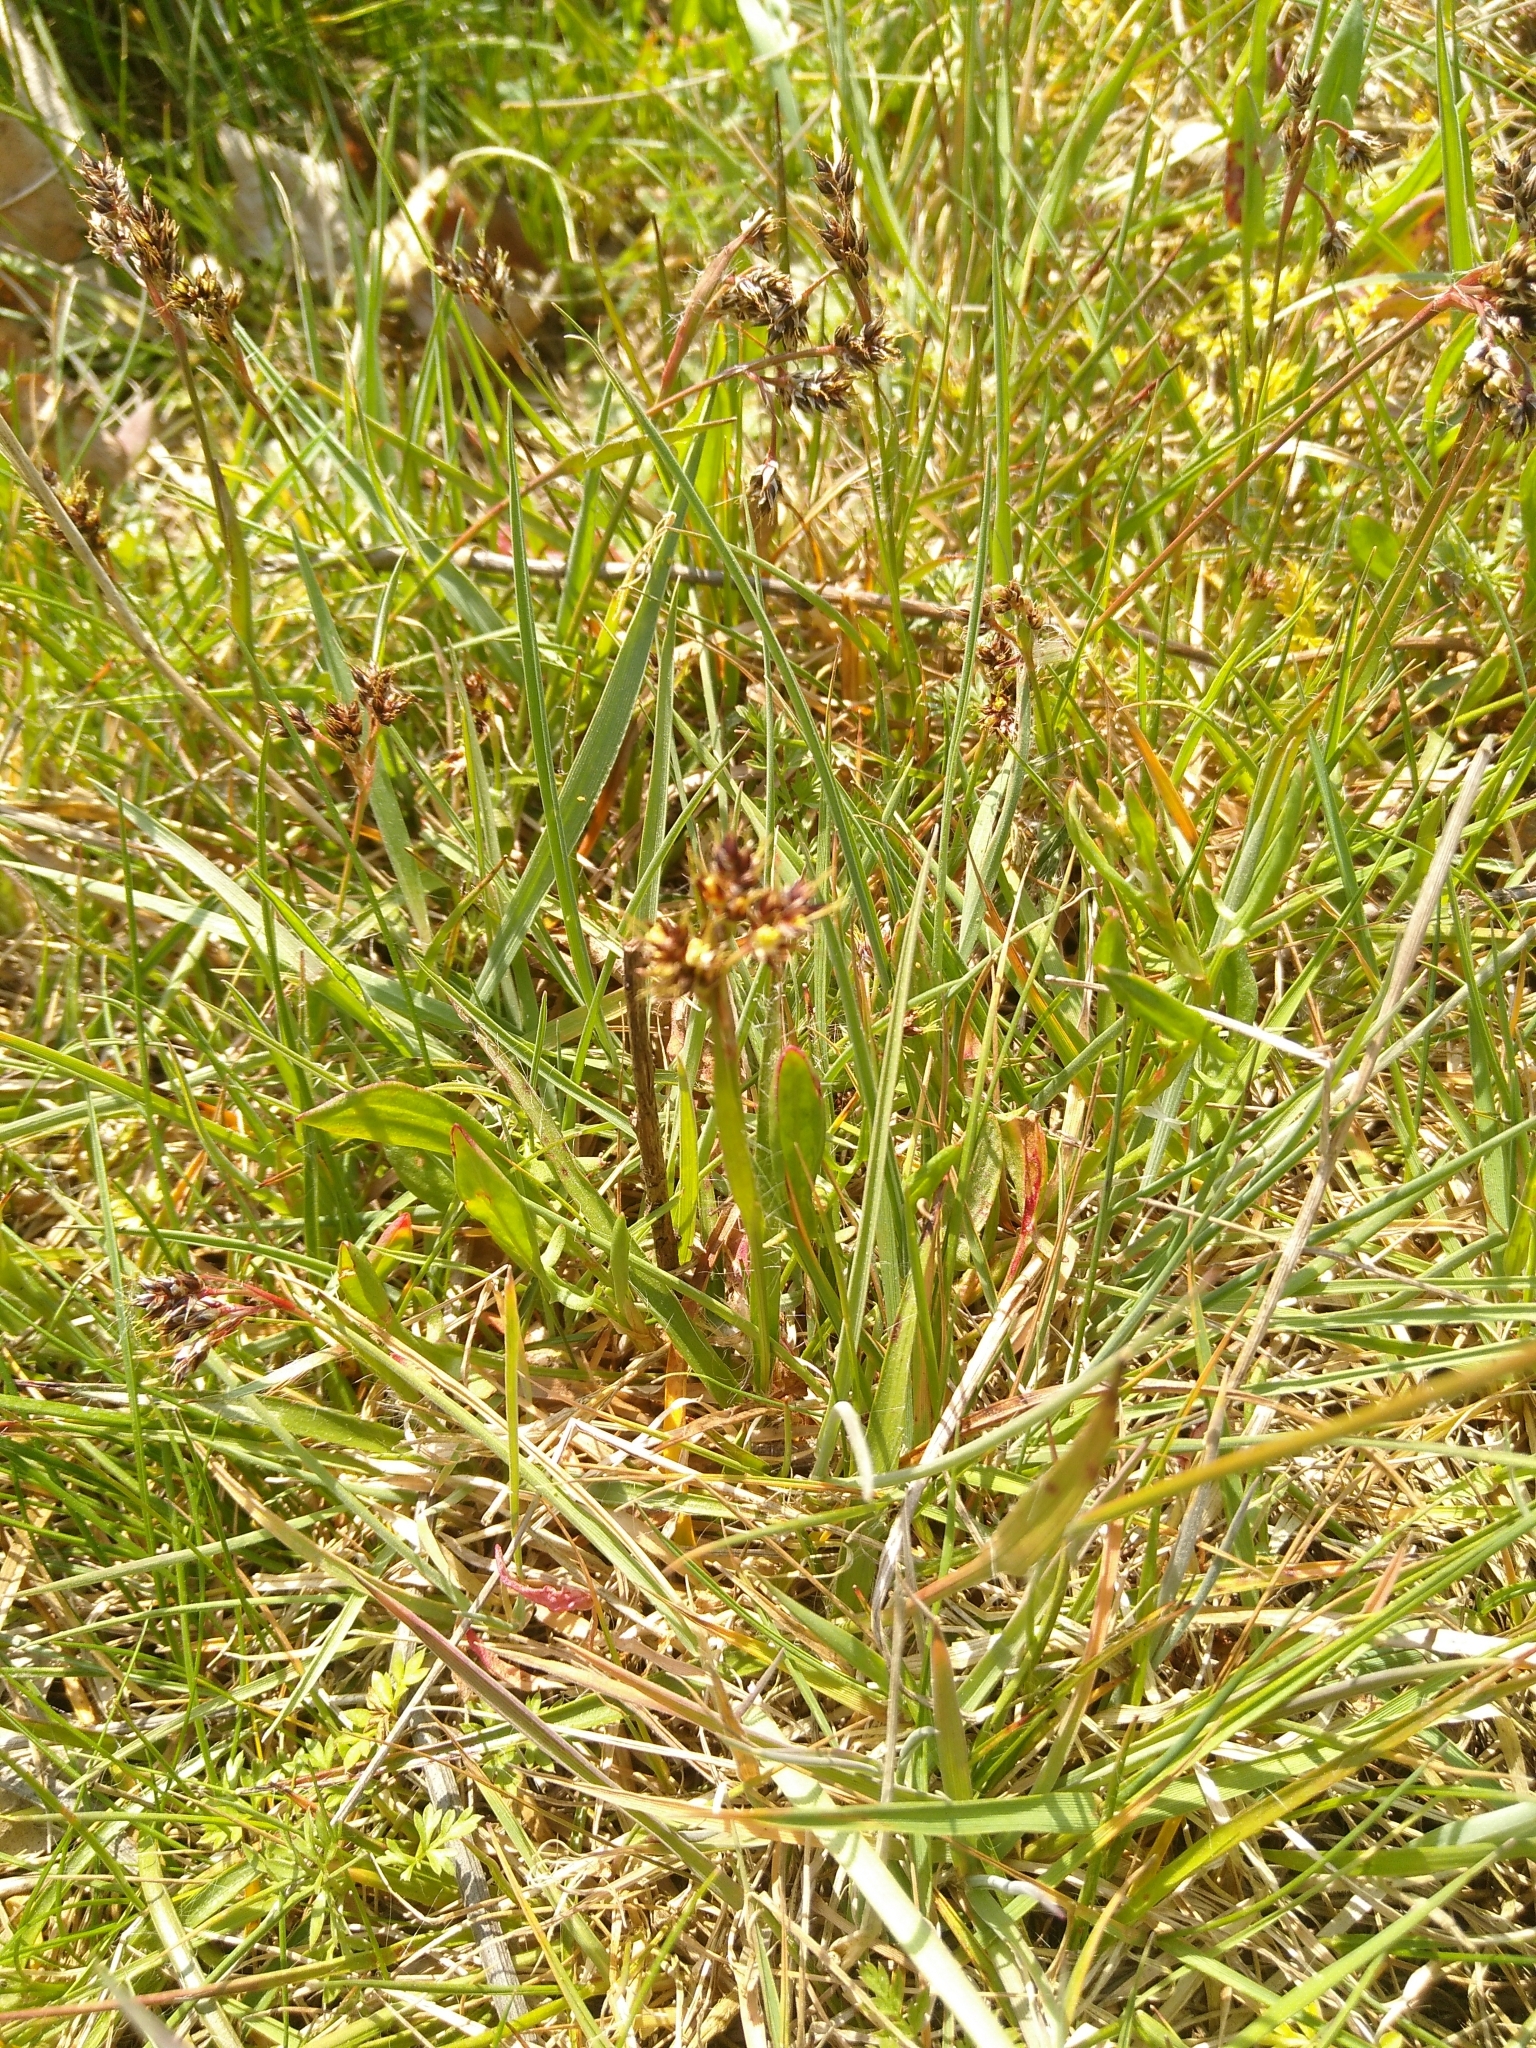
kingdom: Plantae
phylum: Tracheophyta
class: Liliopsida
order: Poales
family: Juncaceae
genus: Luzula
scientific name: Luzula campestris
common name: Field wood-rush
